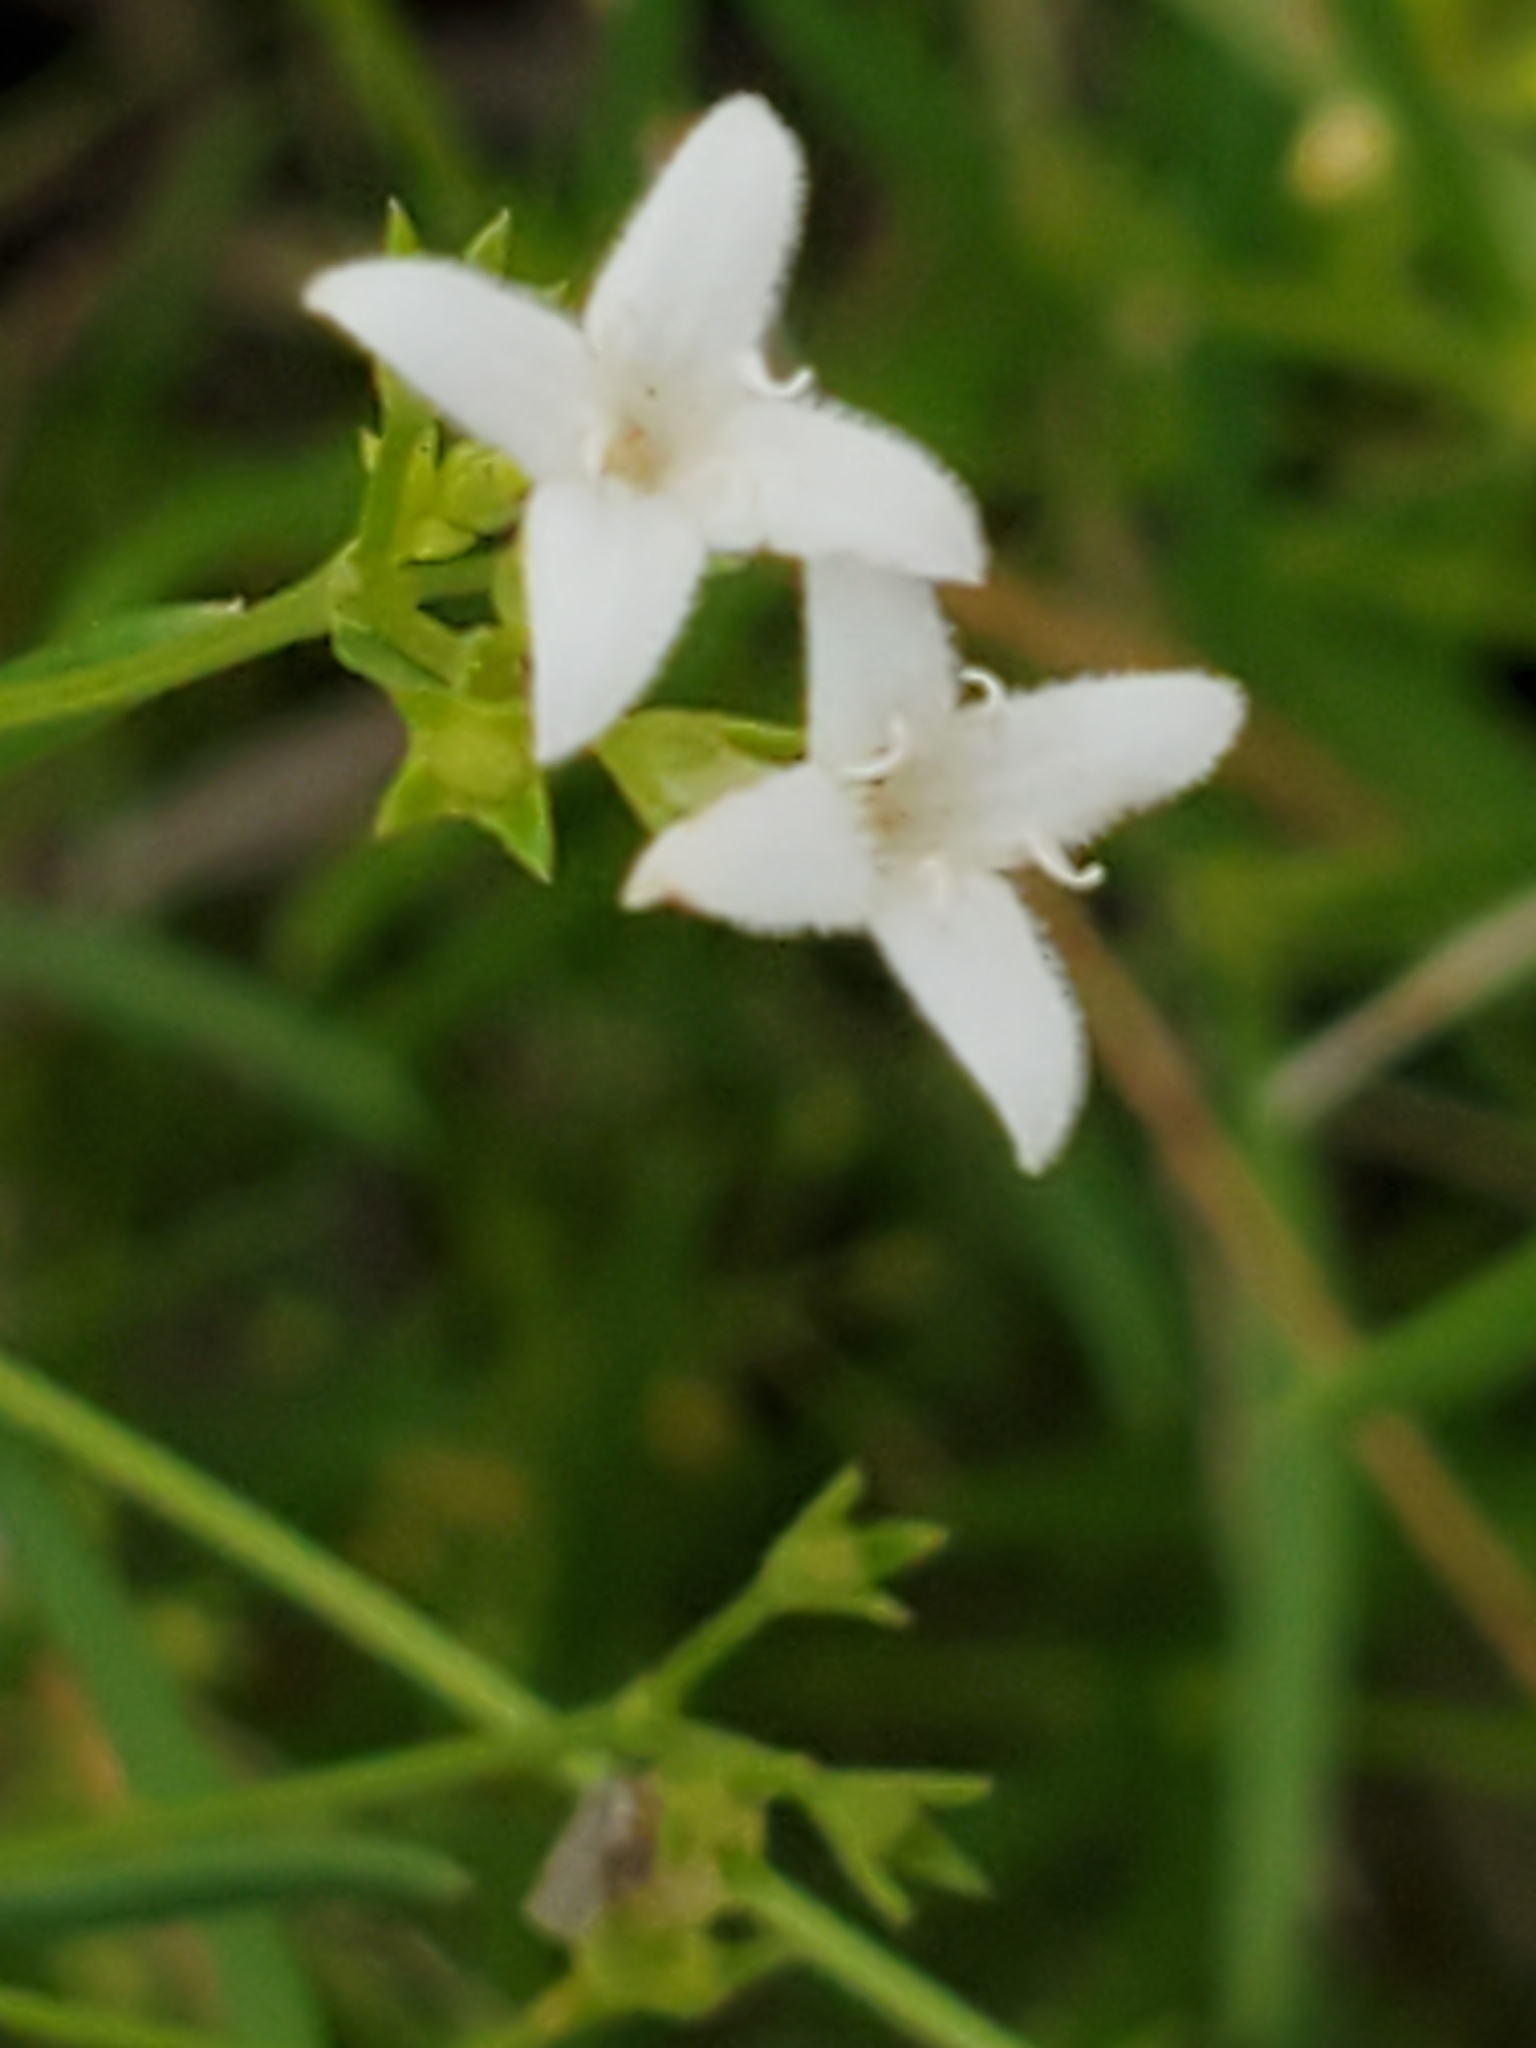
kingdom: Plantae
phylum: Tracheophyta
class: Magnoliopsida
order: Gentianales
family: Rubiaceae
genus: Stenaria
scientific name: Stenaria nigricans
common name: Diamondflowers
